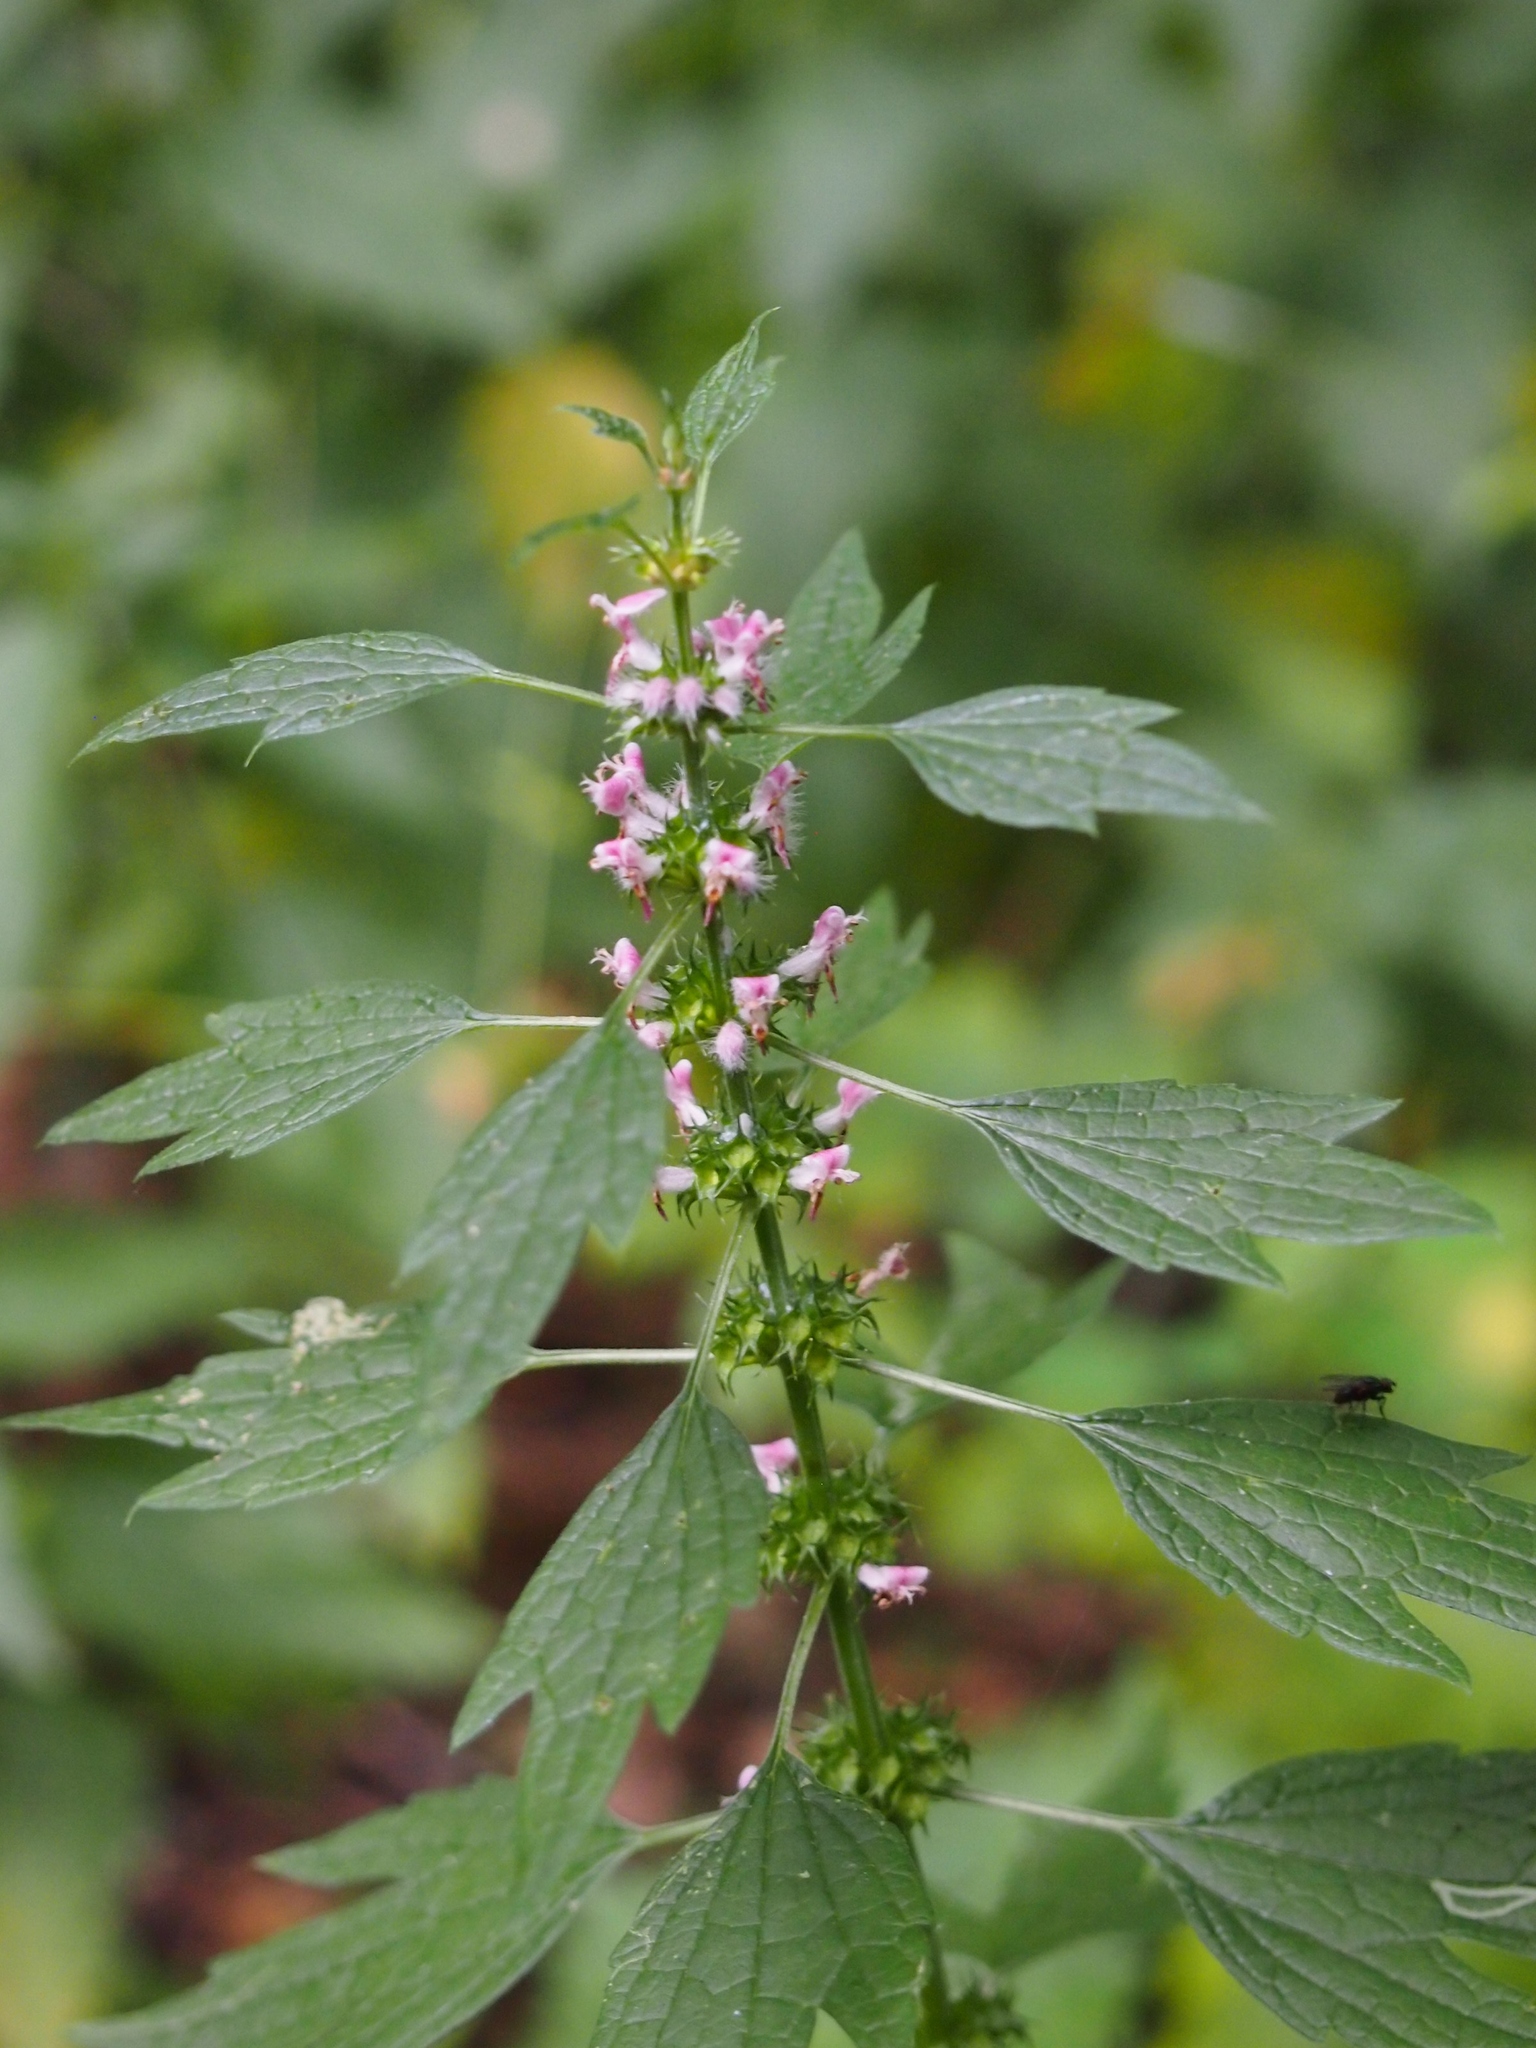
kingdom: Plantae
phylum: Tracheophyta
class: Magnoliopsida
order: Lamiales
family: Lamiaceae
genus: Leonurus
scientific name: Leonurus cardiaca
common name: Motherwort
